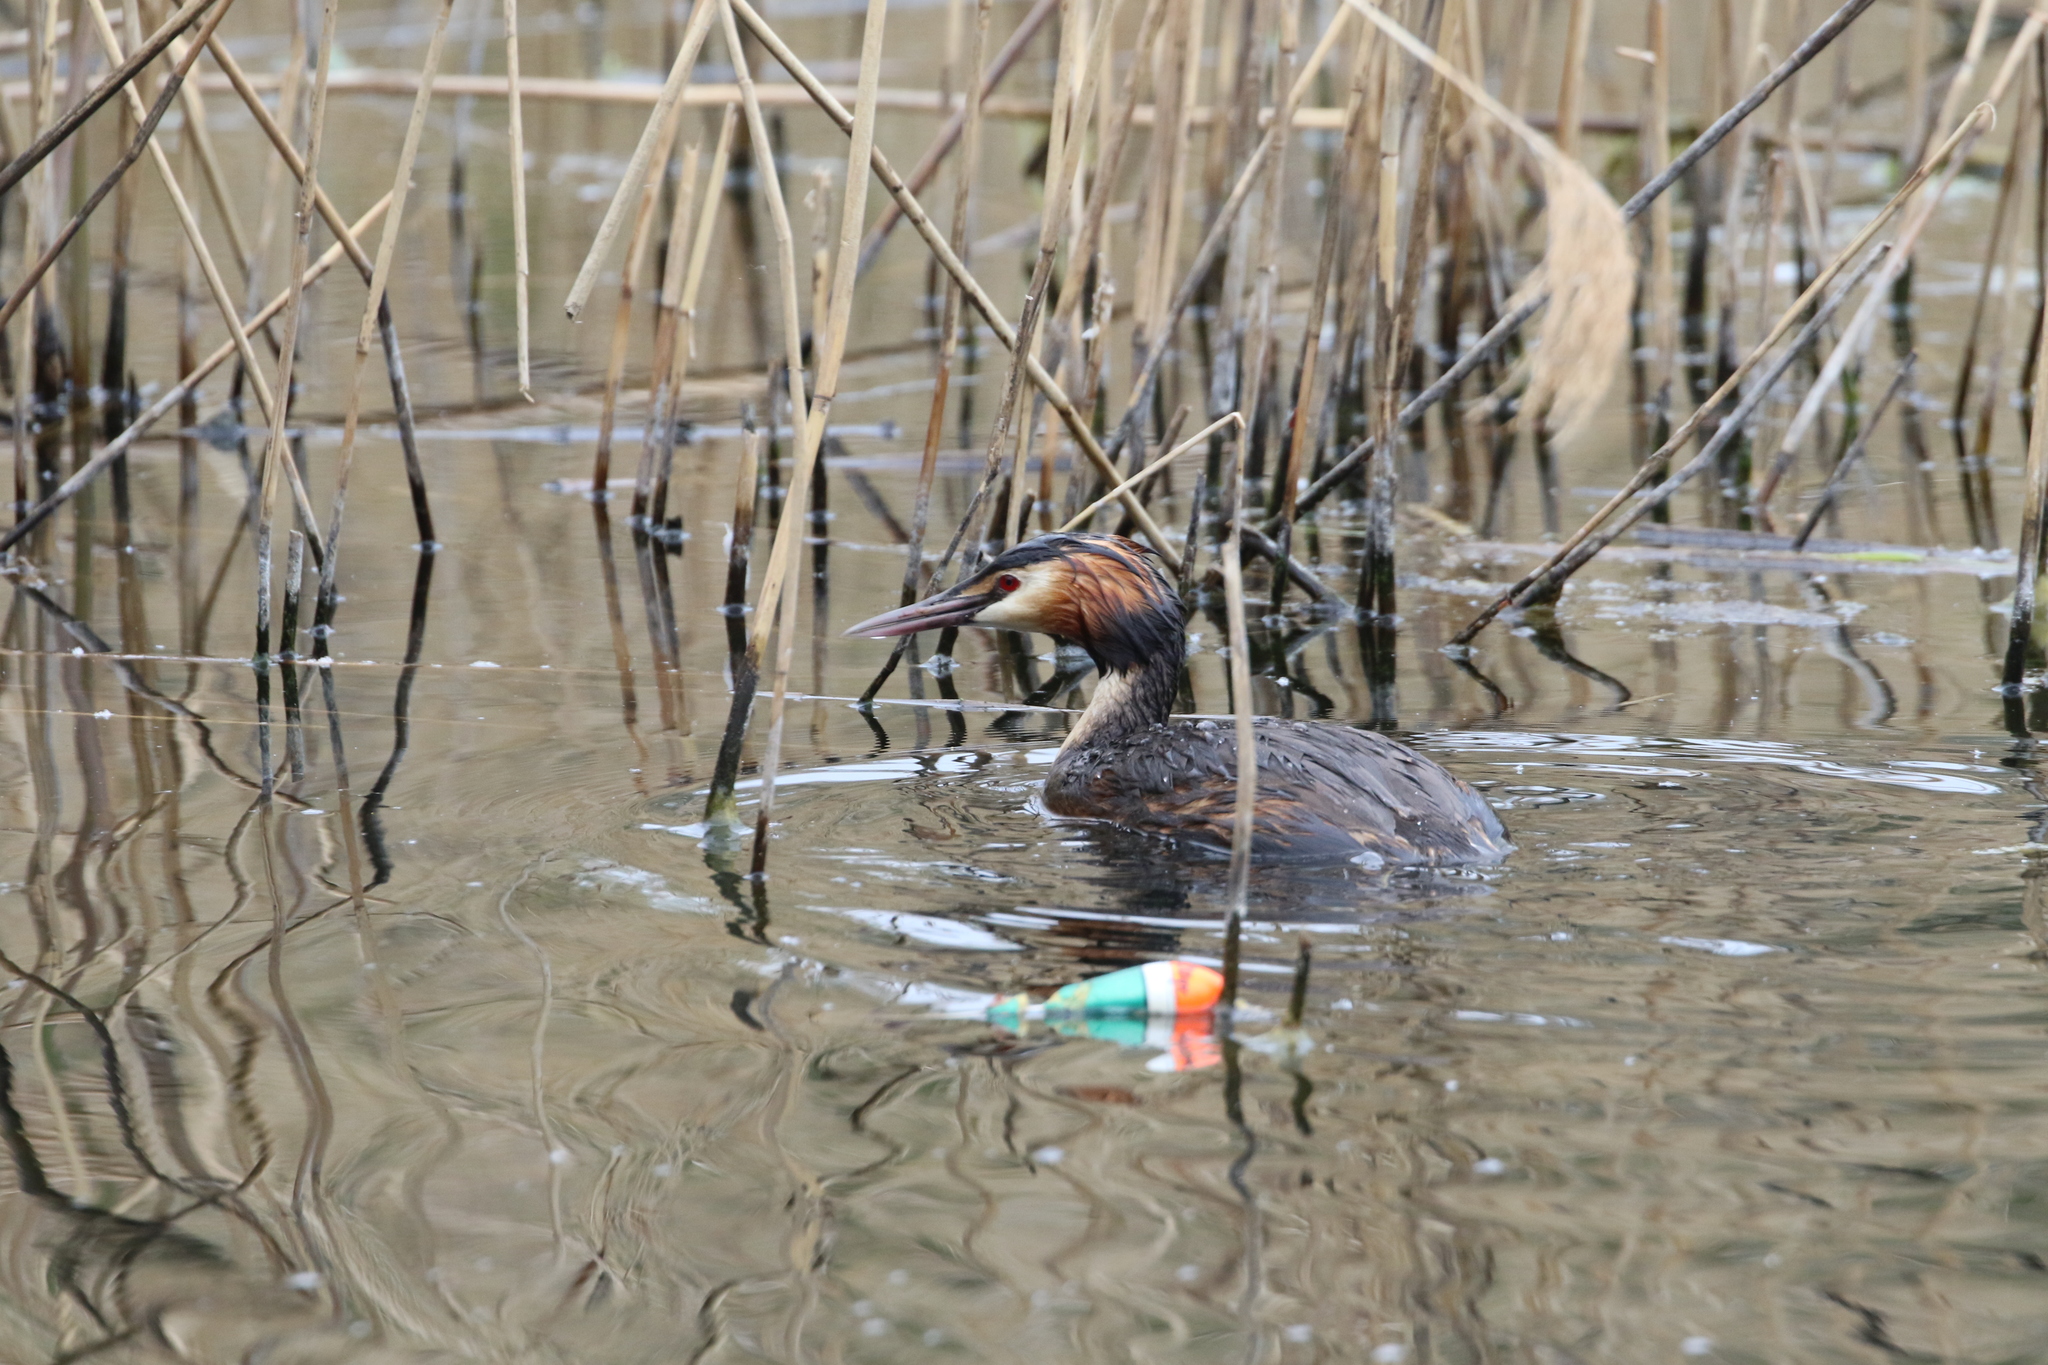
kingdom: Animalia
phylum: Chordata
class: Aves
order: Podicipediformes
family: Podicipedidae
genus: Podiceps
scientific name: Podiceps cristatus
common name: Great crested grebe
